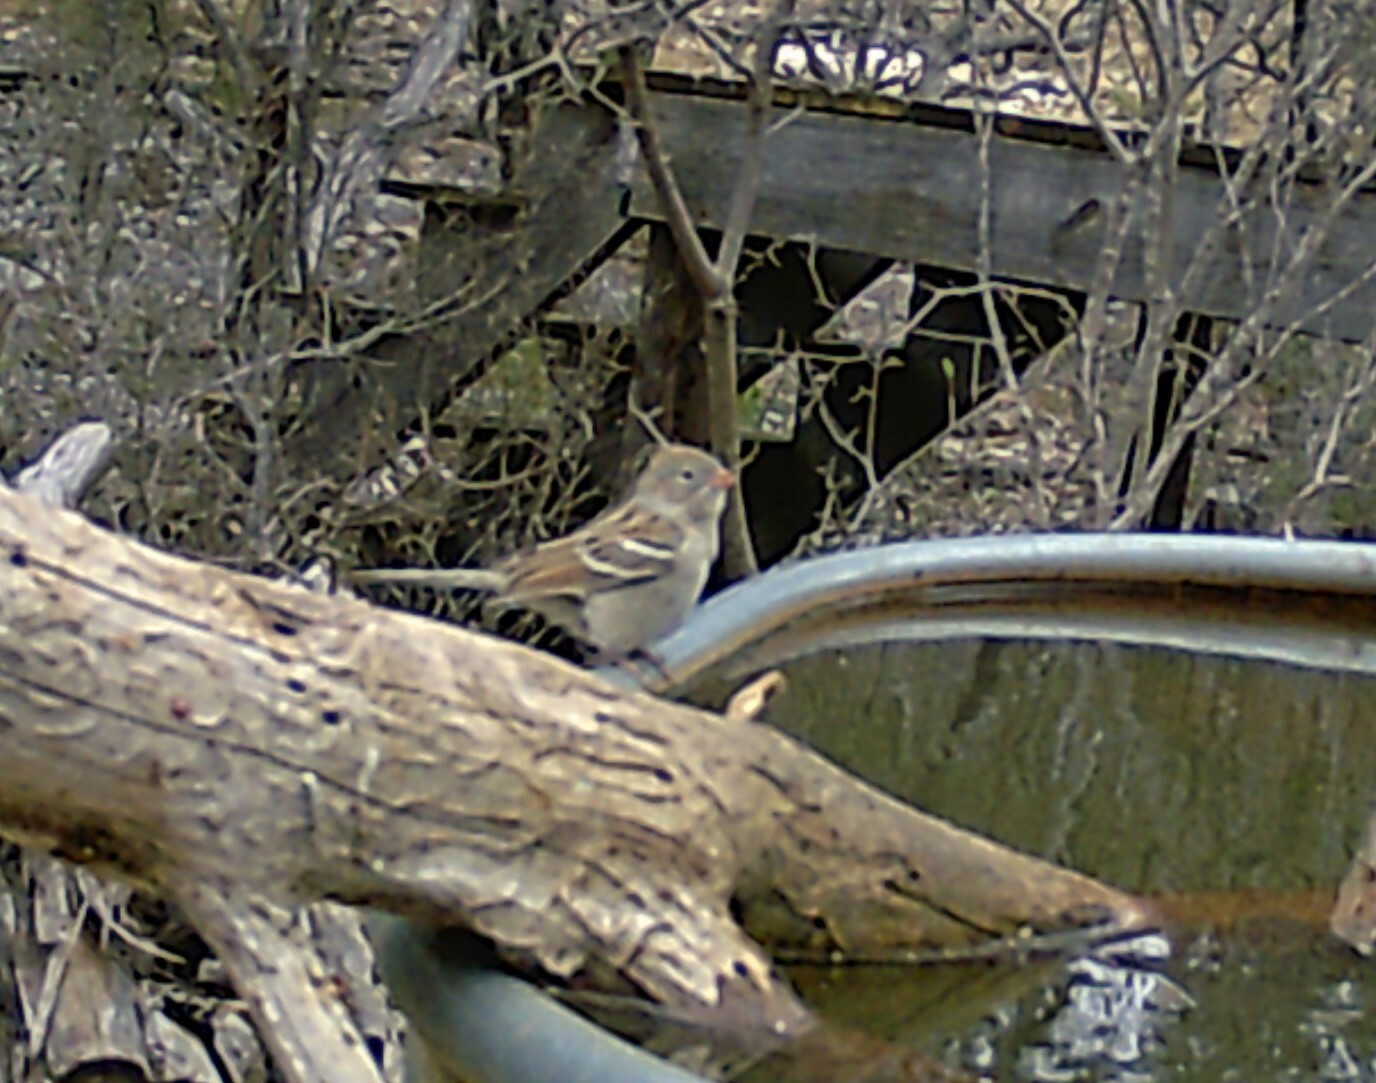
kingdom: Animalia
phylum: Chordata
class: Aves
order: Passeriformes
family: Passerellidae
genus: Spizella
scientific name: Spizella pusilla
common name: Field sparrow
